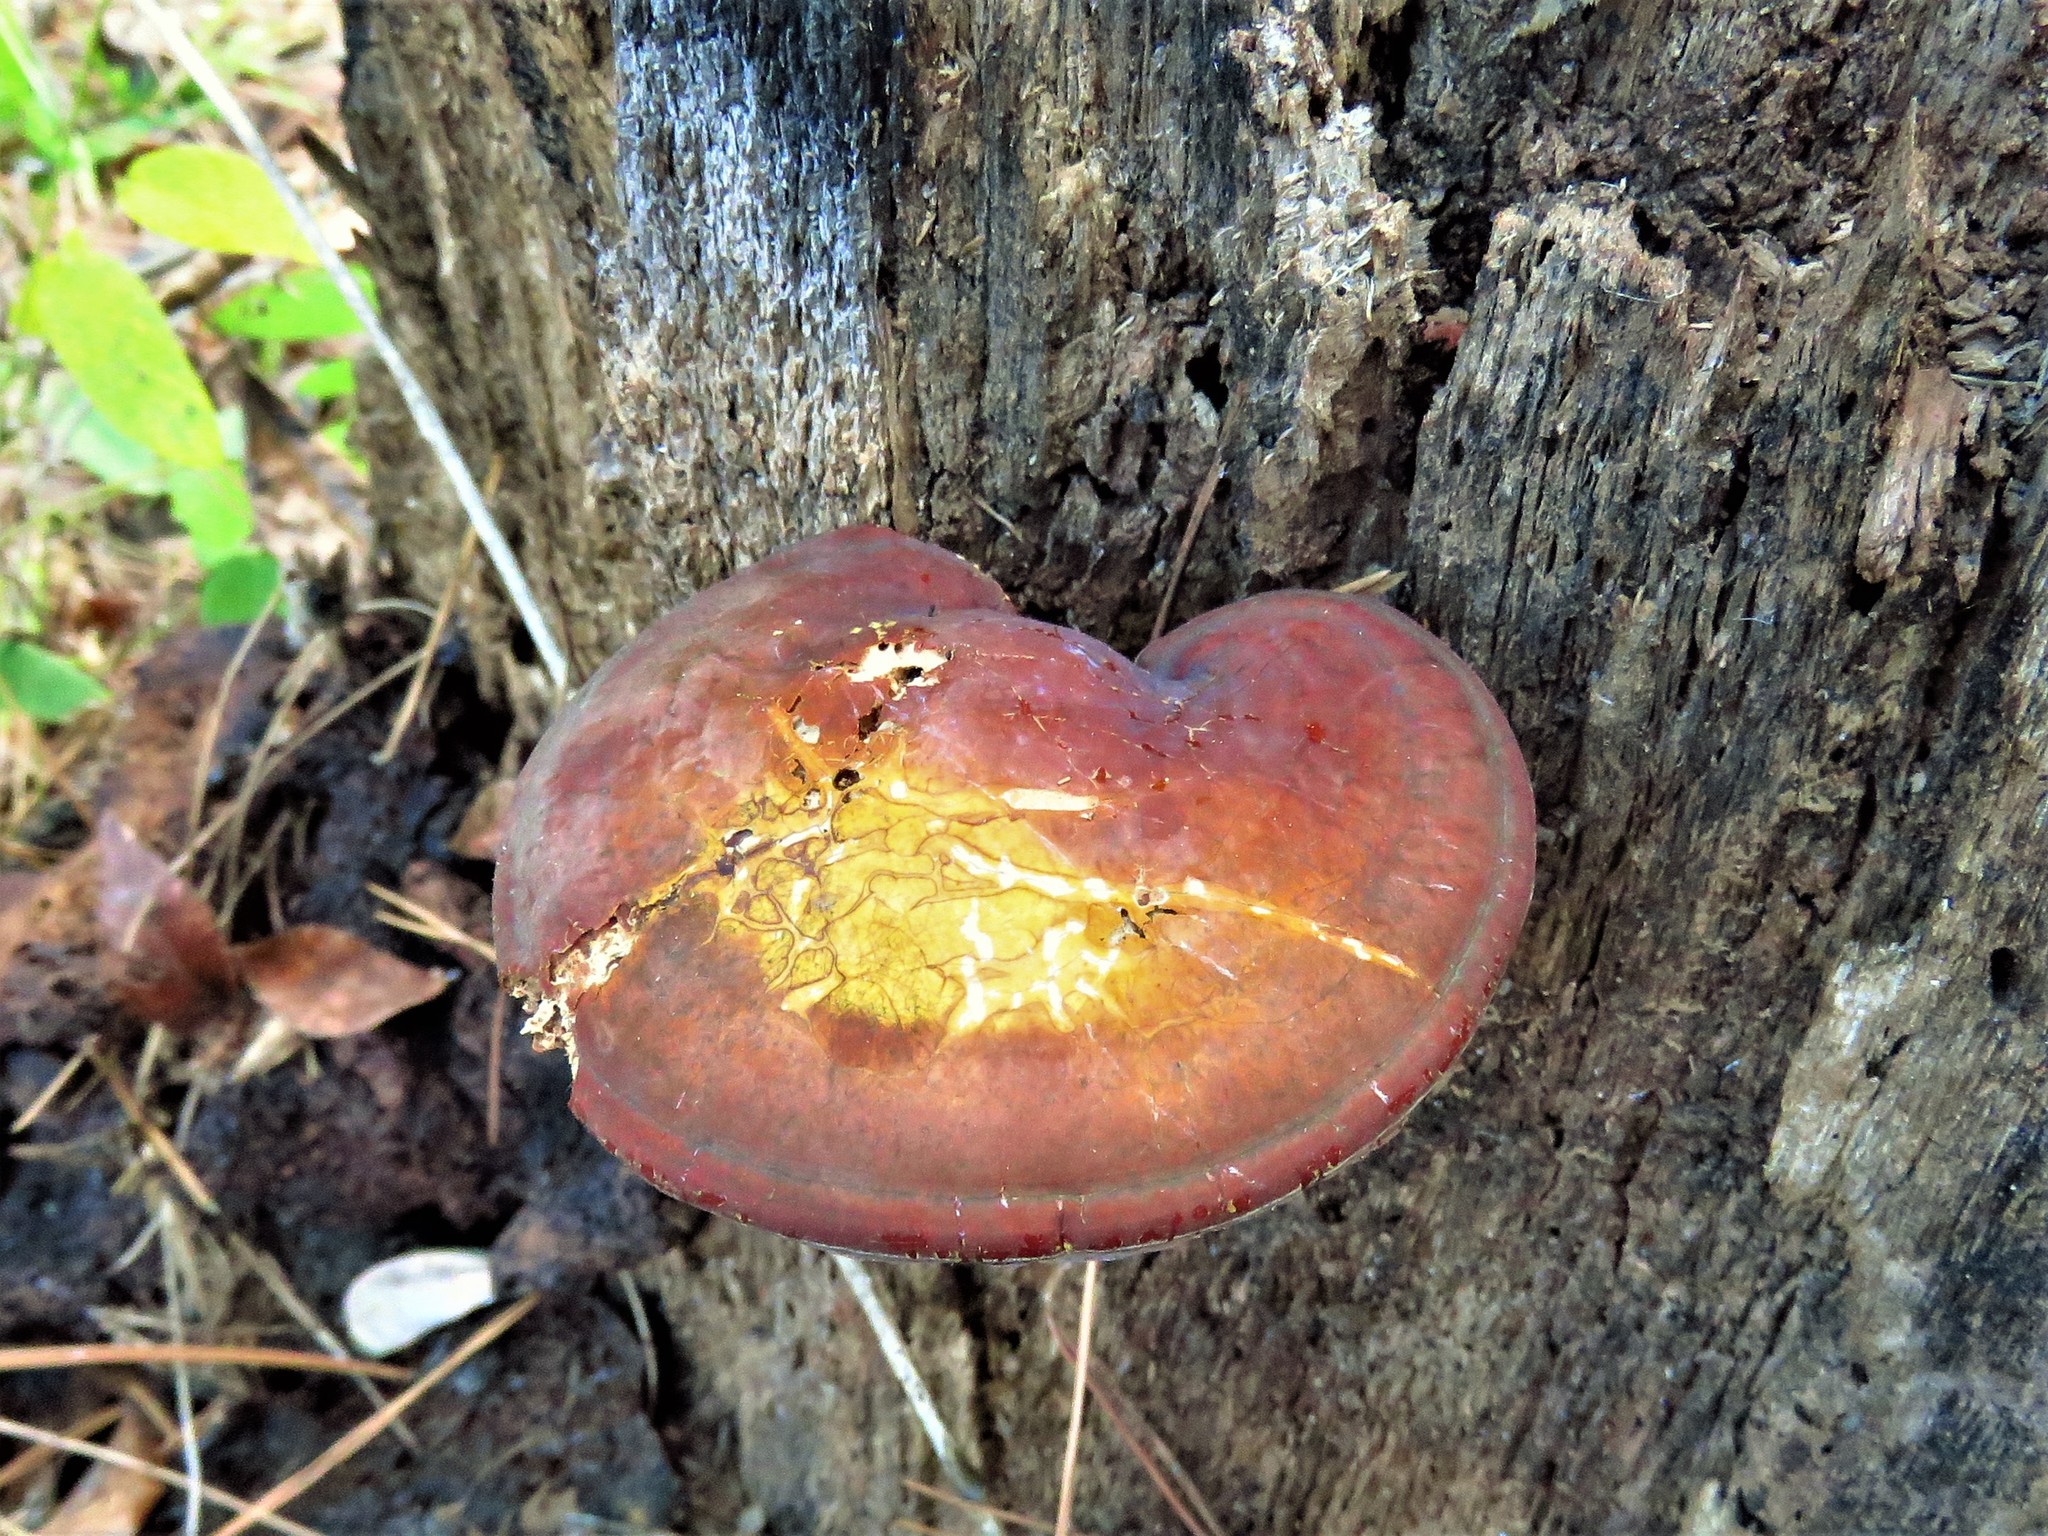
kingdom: Fungi
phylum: Basidiomycota
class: Agaricomycetes
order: Polyporales
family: Polyporaceae
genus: Ganoderma
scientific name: Ganoderma curtisii
